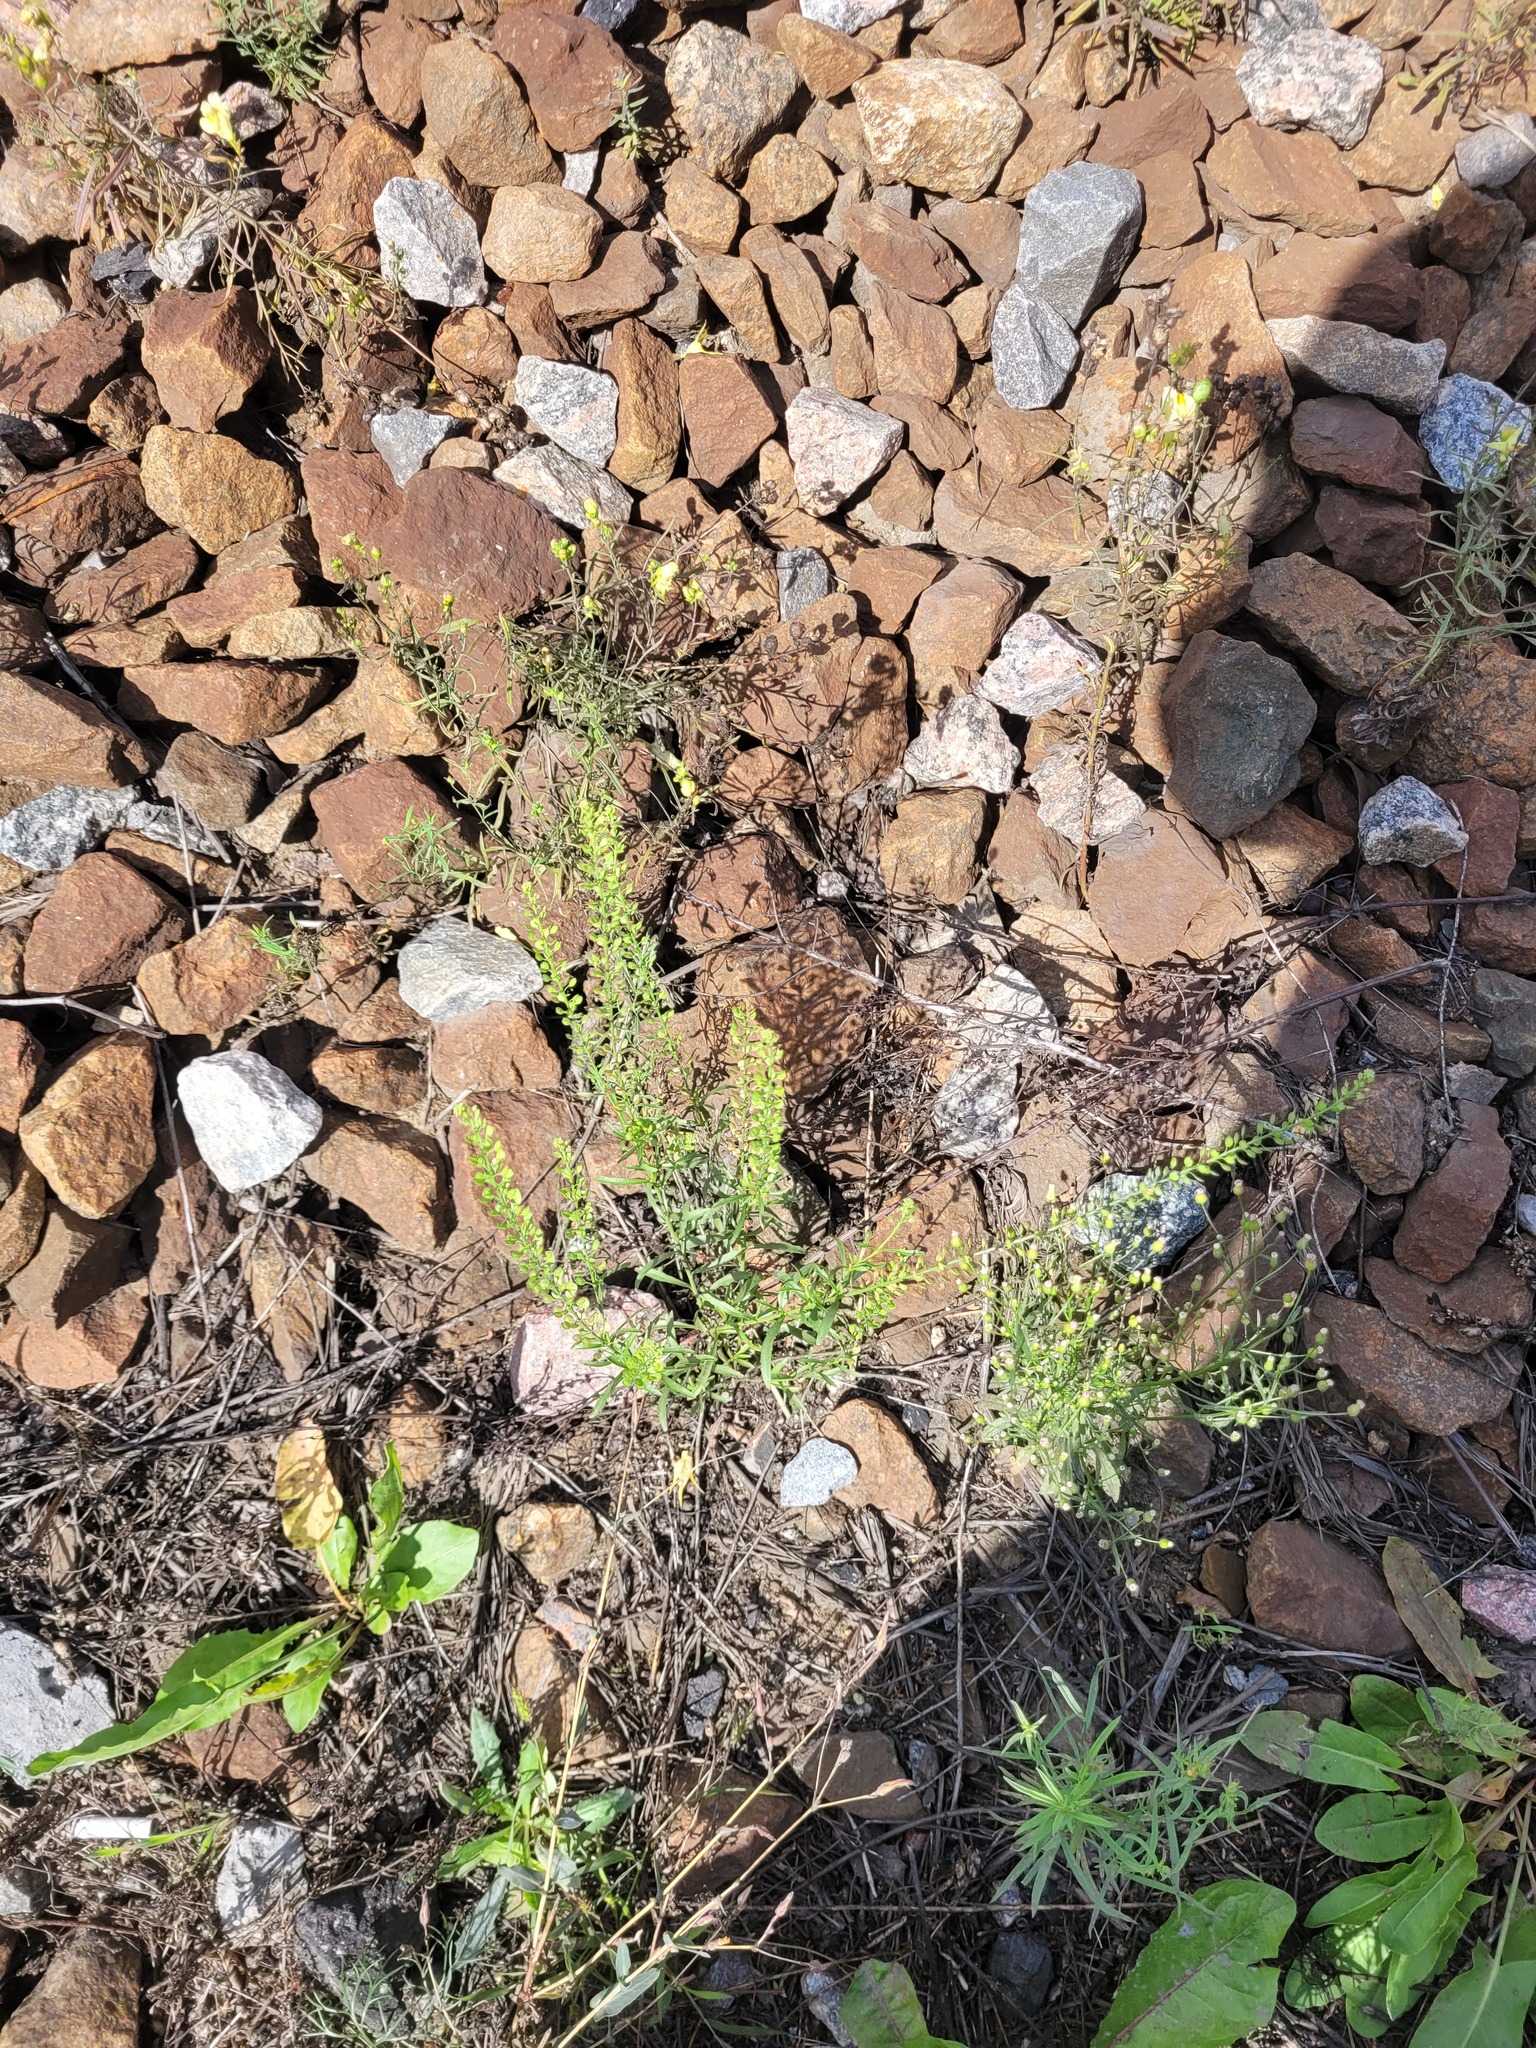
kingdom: Plantae
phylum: Tracheophyta
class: Magnoliopsida
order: Brassicales
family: Brassicaceae
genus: Lepidium
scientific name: Lepidium densiflorum
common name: Miner's pepperwort
